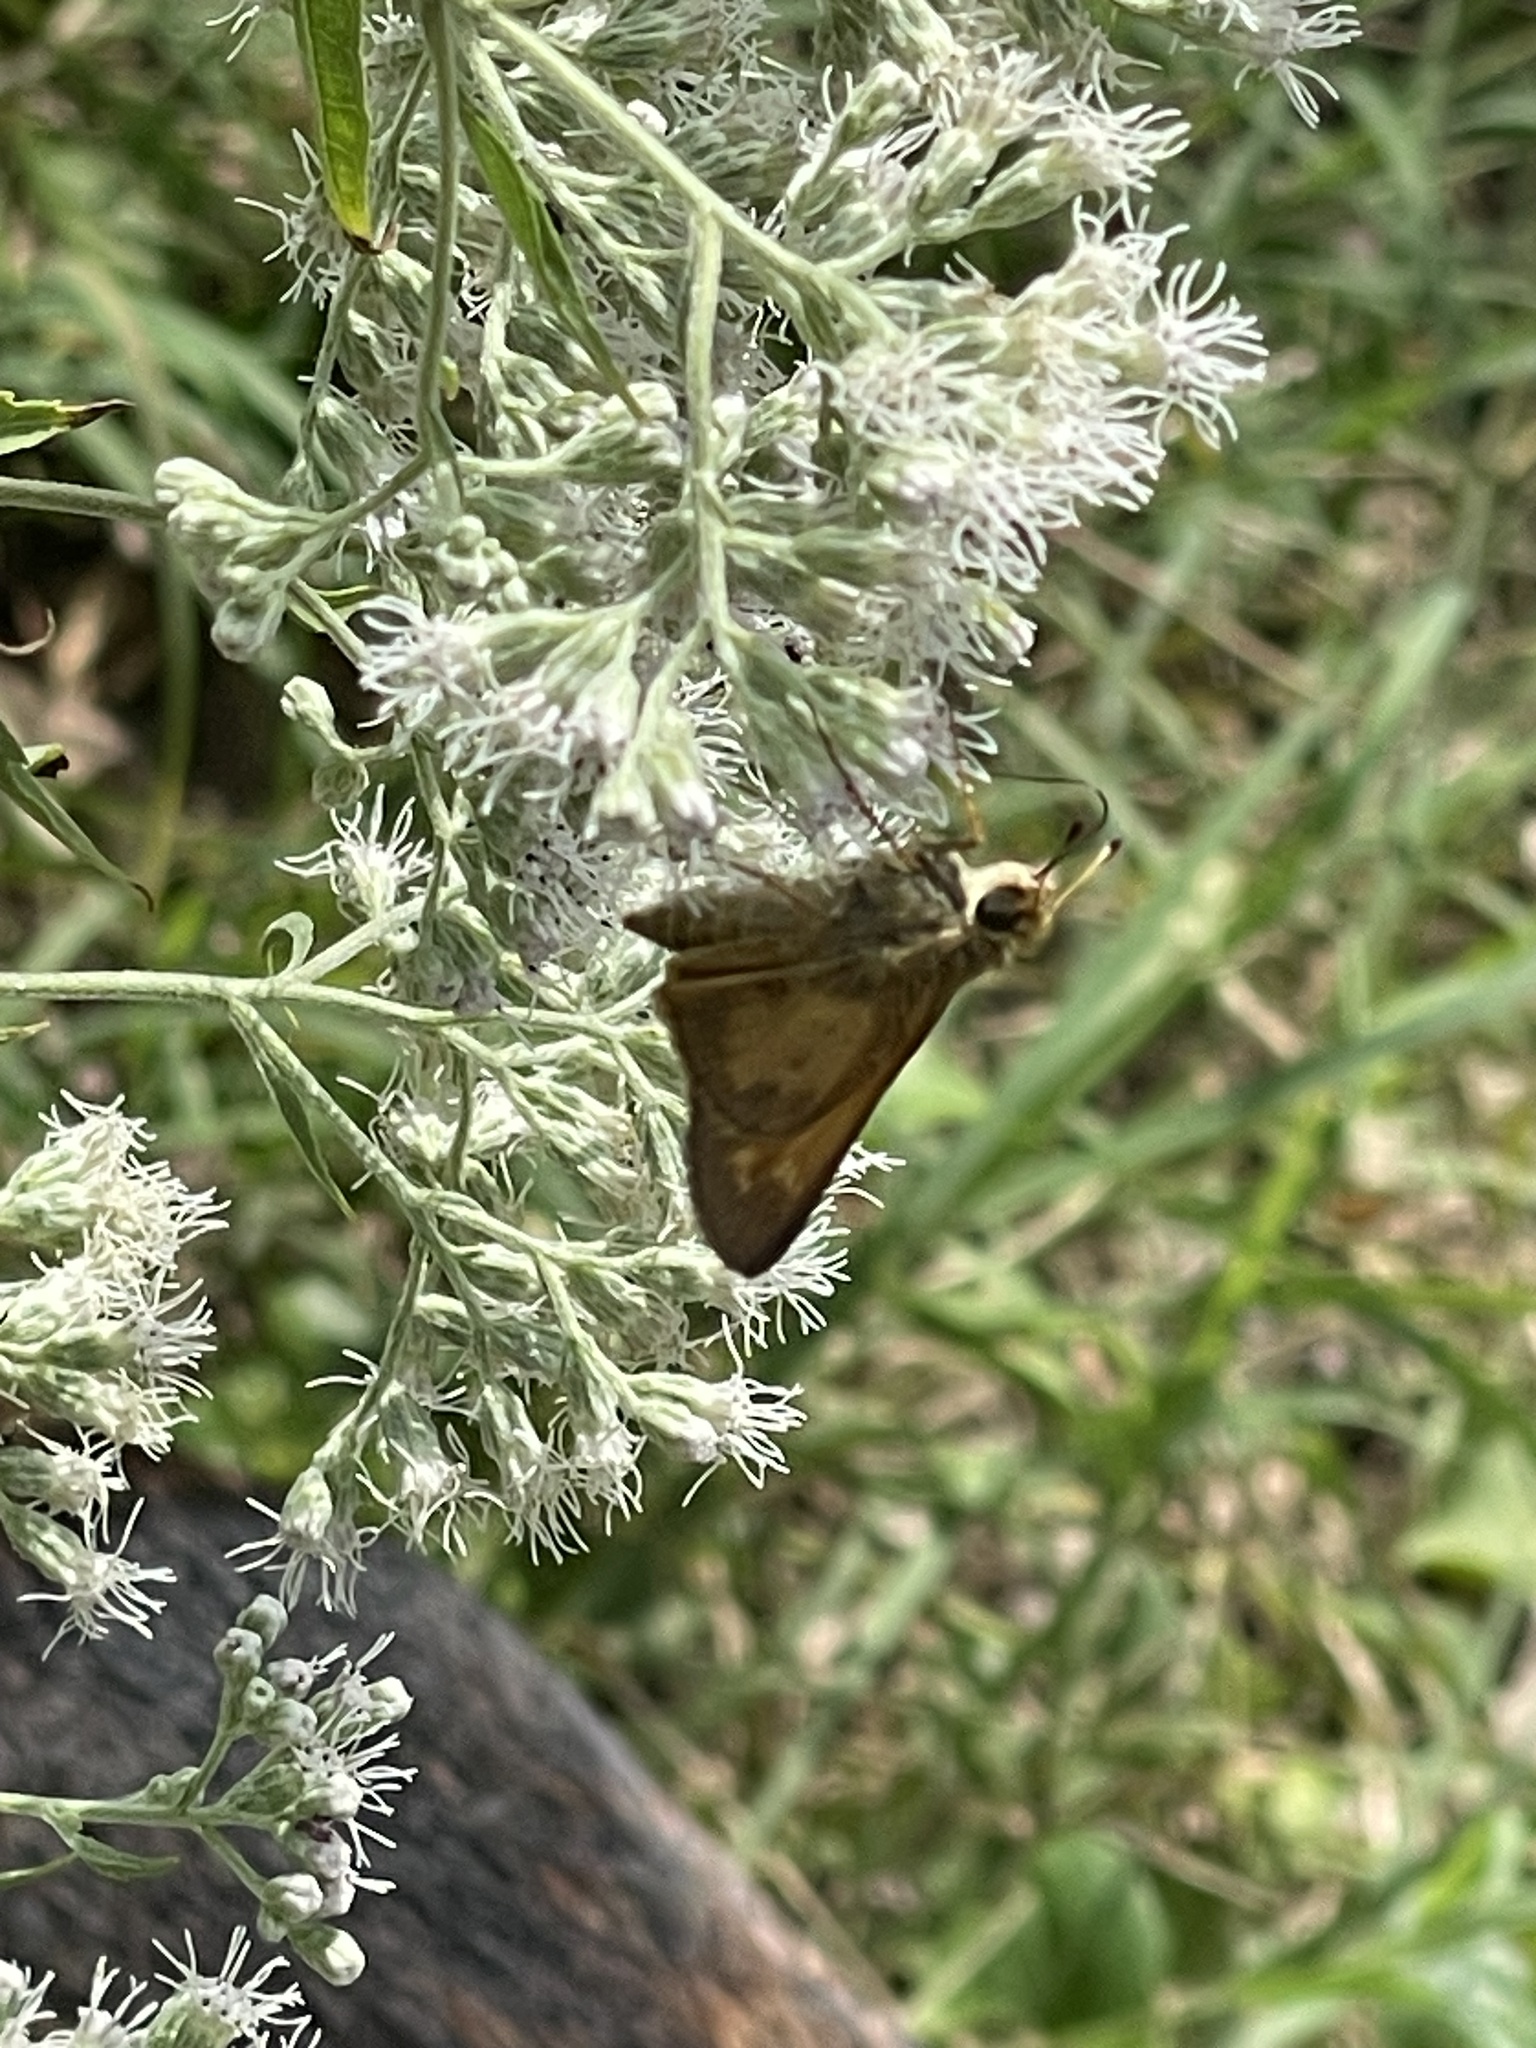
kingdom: Animalia
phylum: Arthropoda
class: Insecta
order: Lepidoptera
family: Hesperiidae
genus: Atalopedes
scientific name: Atalopedes
